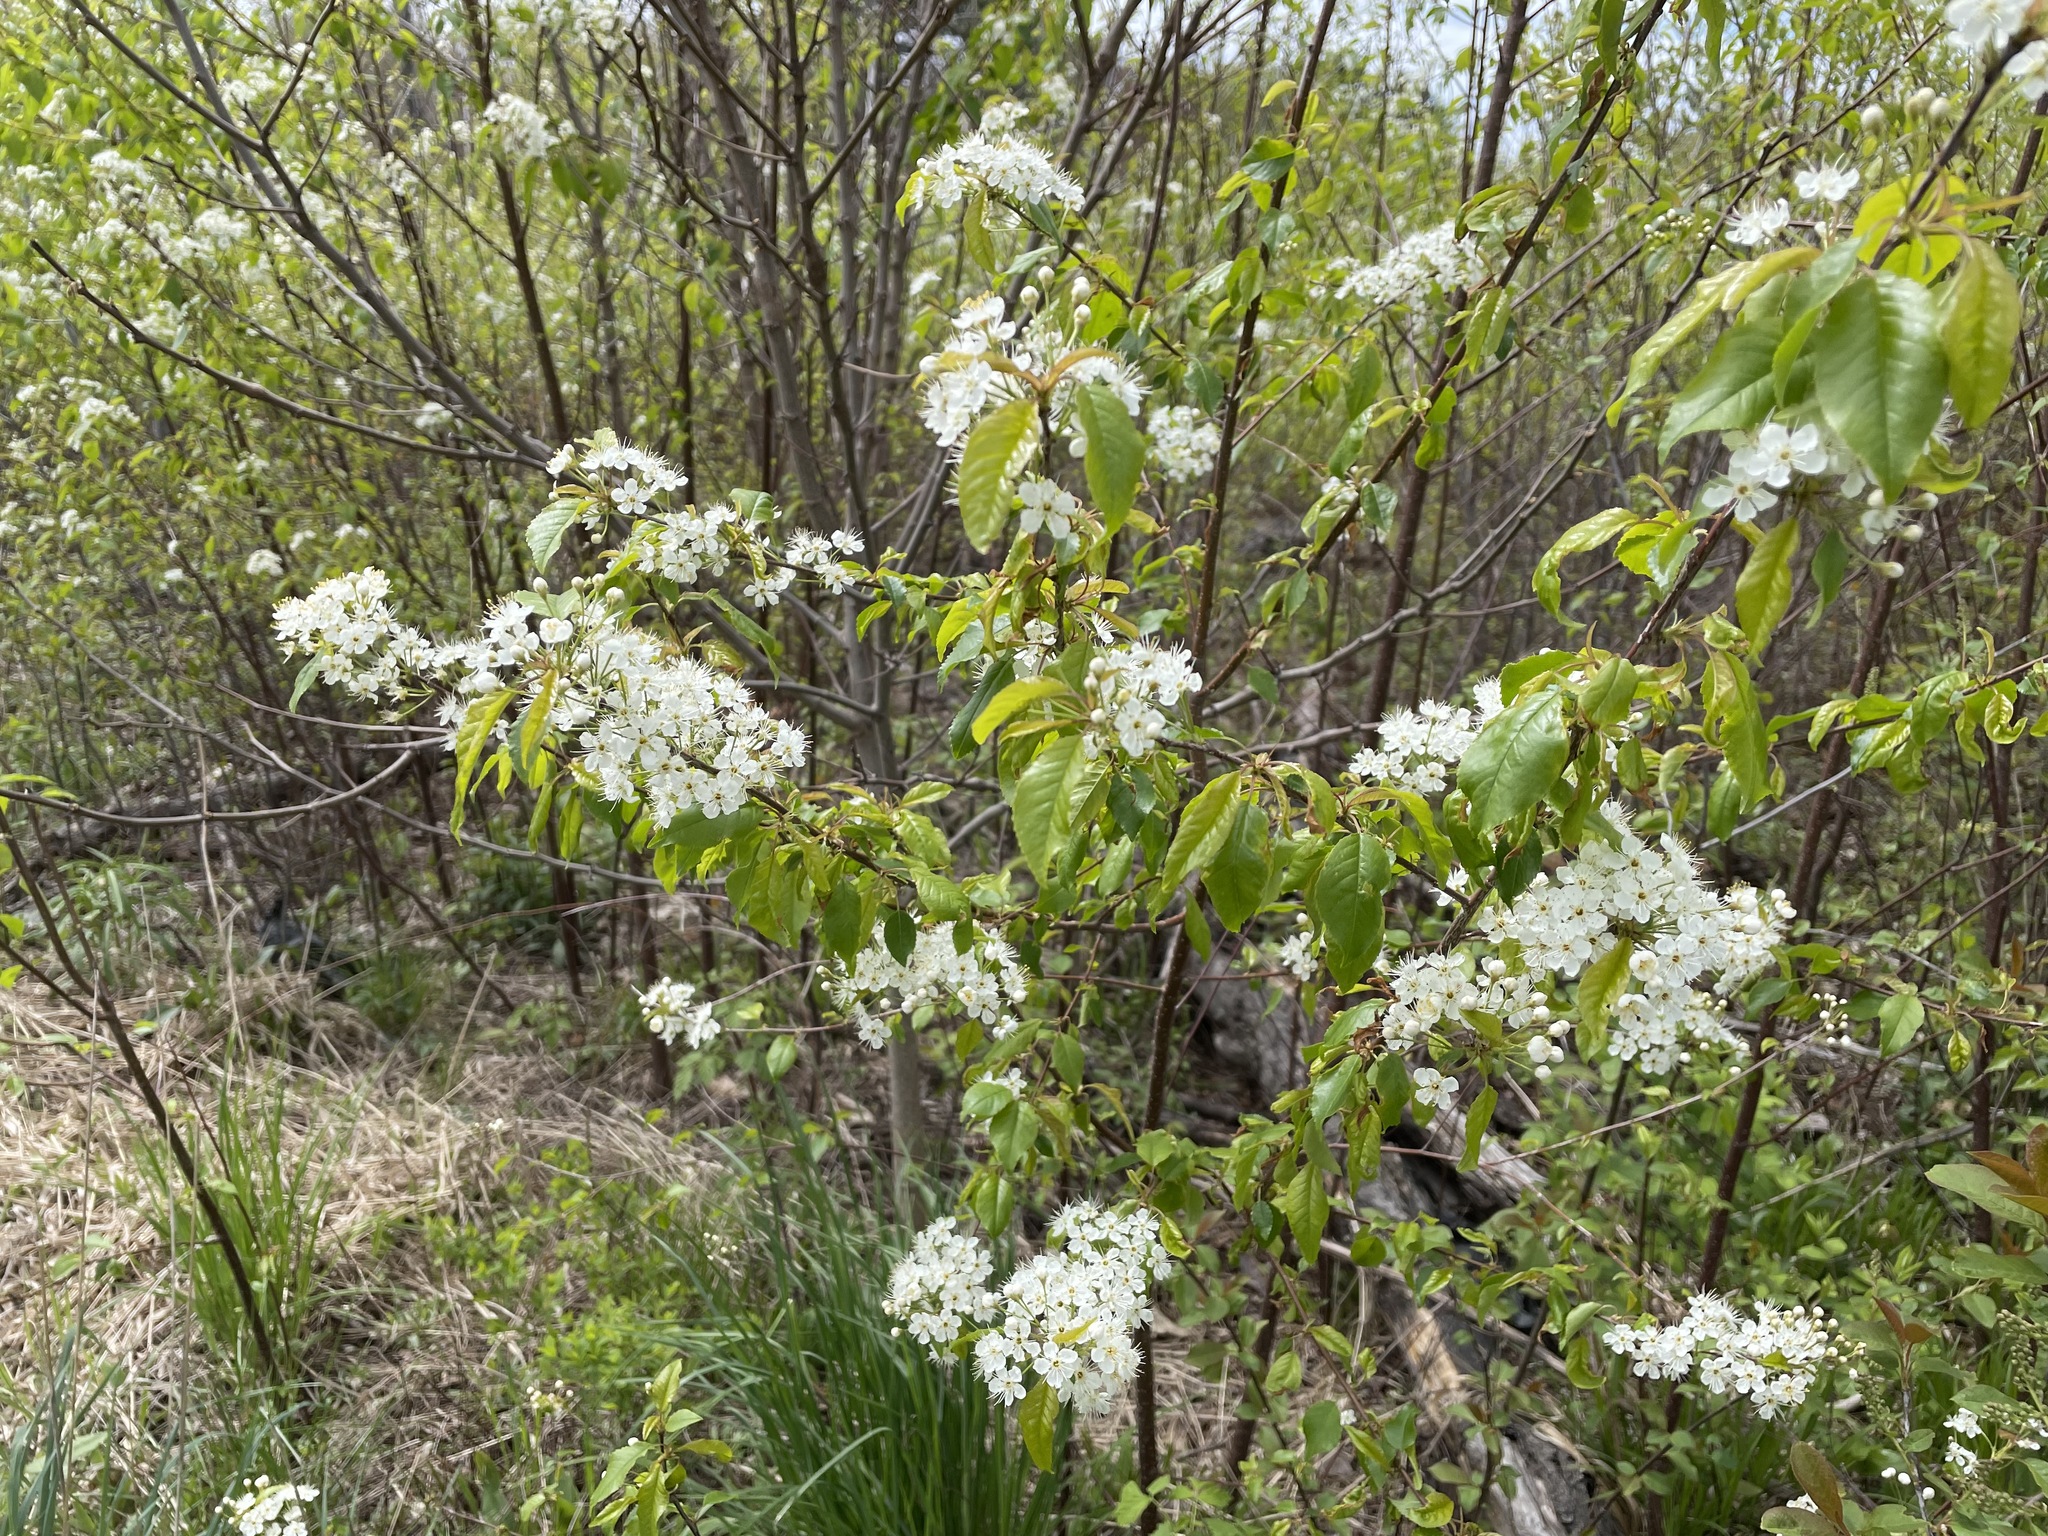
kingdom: Plantae
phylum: Tracheophyta
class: Magnoliopsida
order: Rosales
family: Rosaceae
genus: Prunus
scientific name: Prunus pensylvanica
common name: Pin cherry
